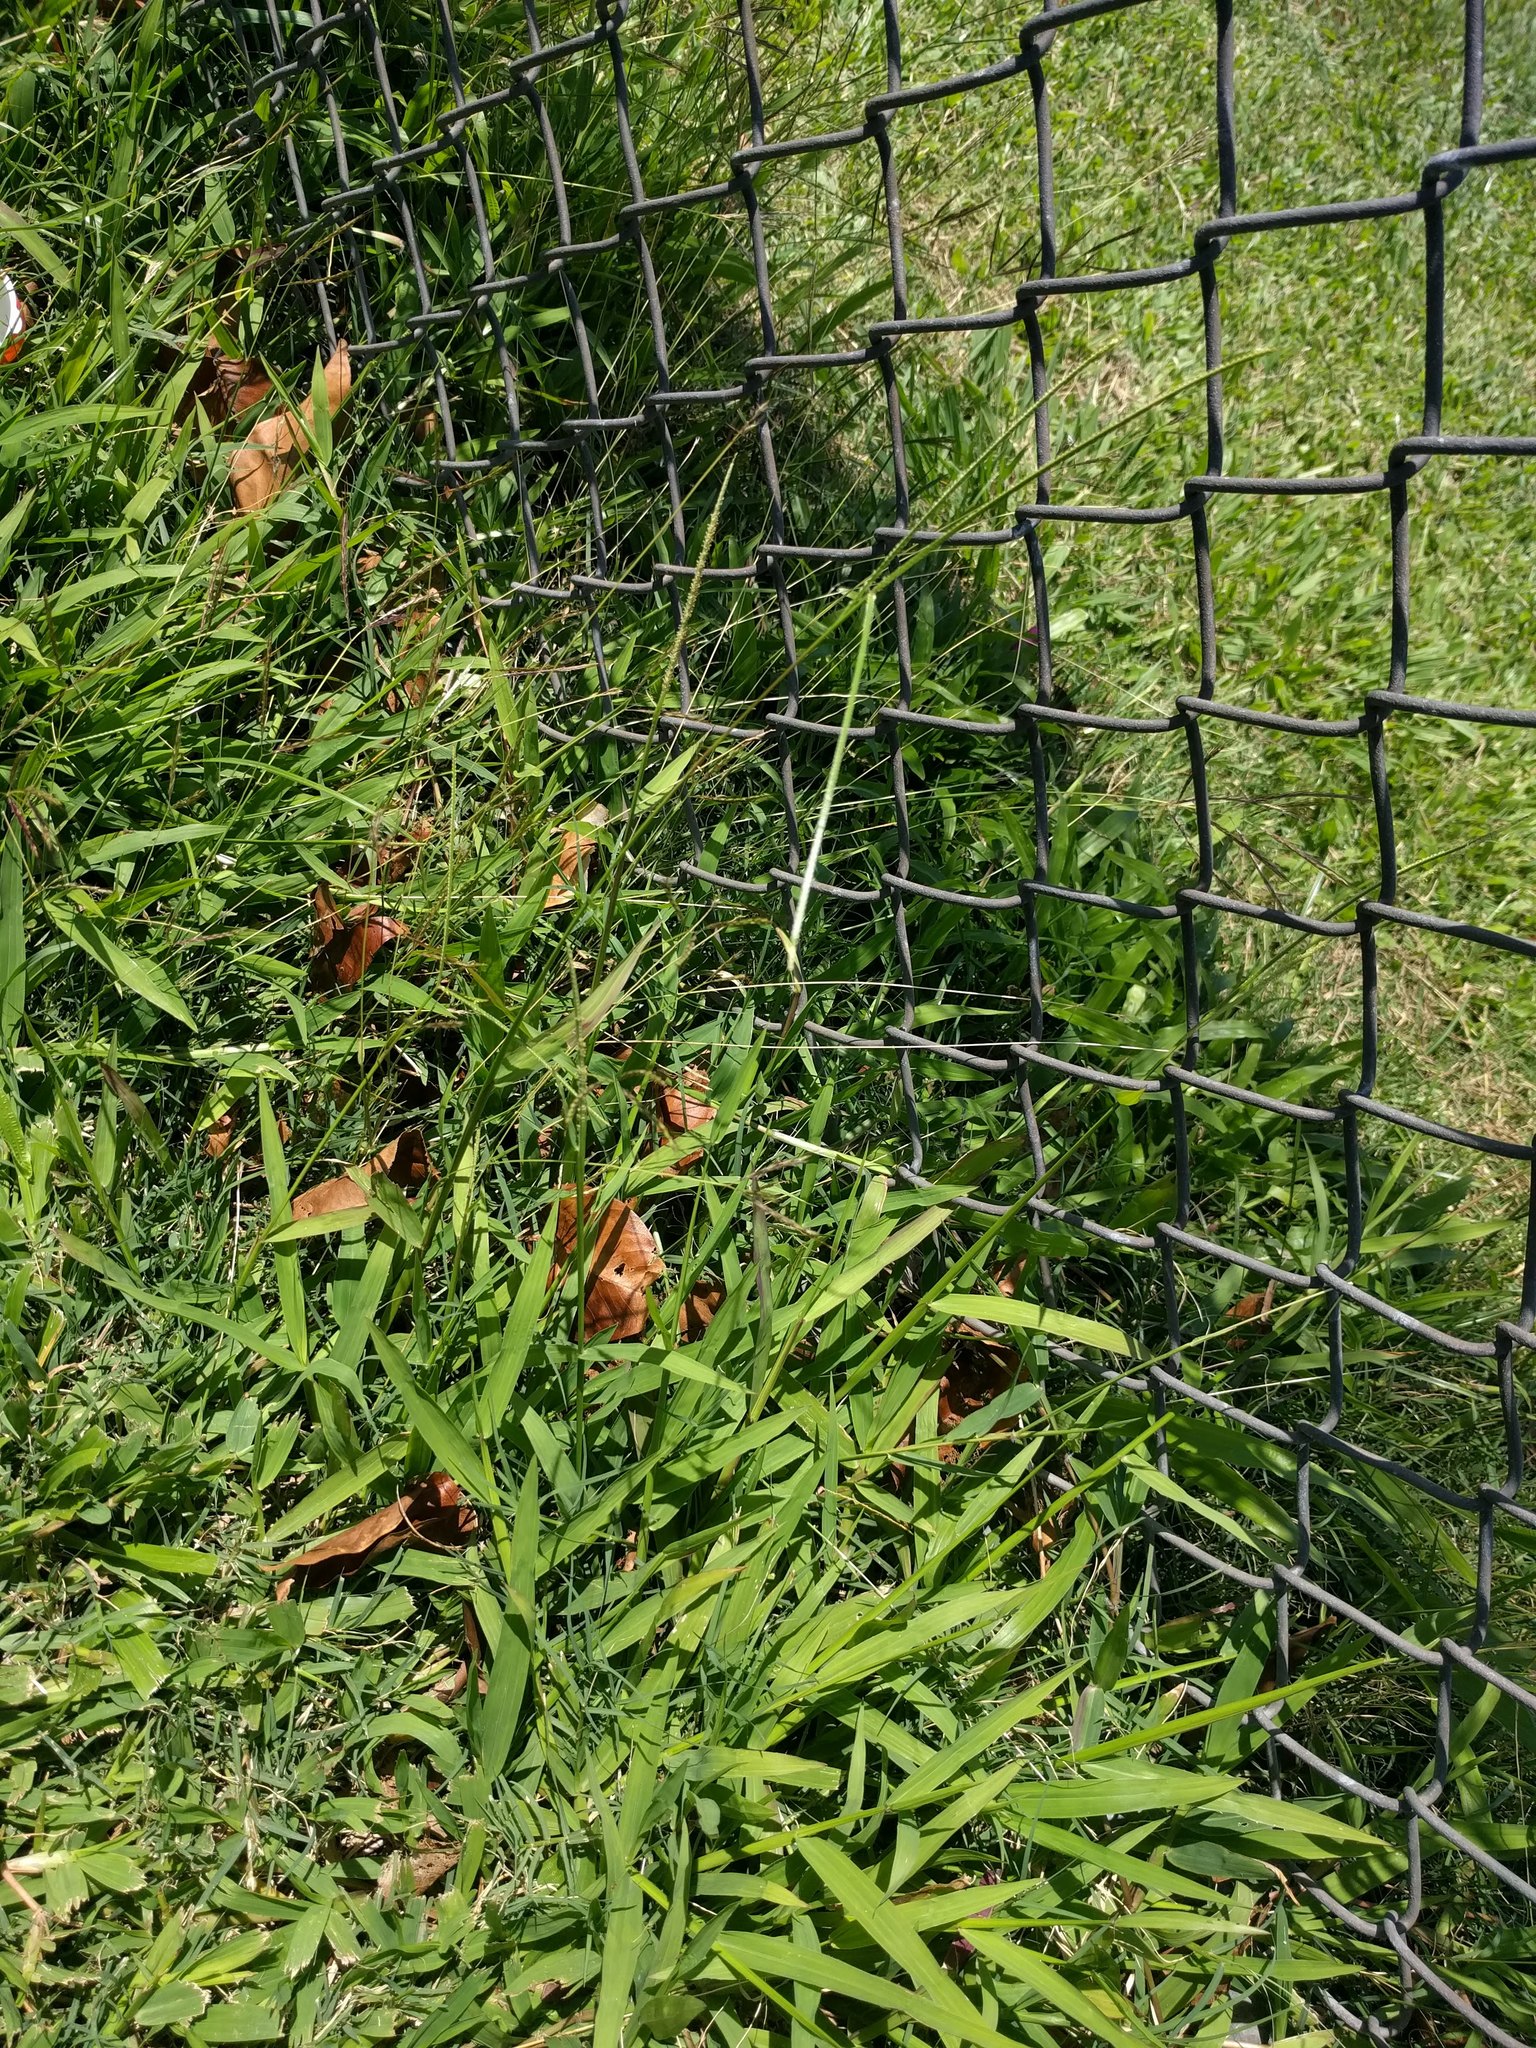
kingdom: Plantae
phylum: Tracheophyta
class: Liliopsida
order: Poales
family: Poaceae
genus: Paspalum
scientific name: Paspalum conjugatum
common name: Hilograss
